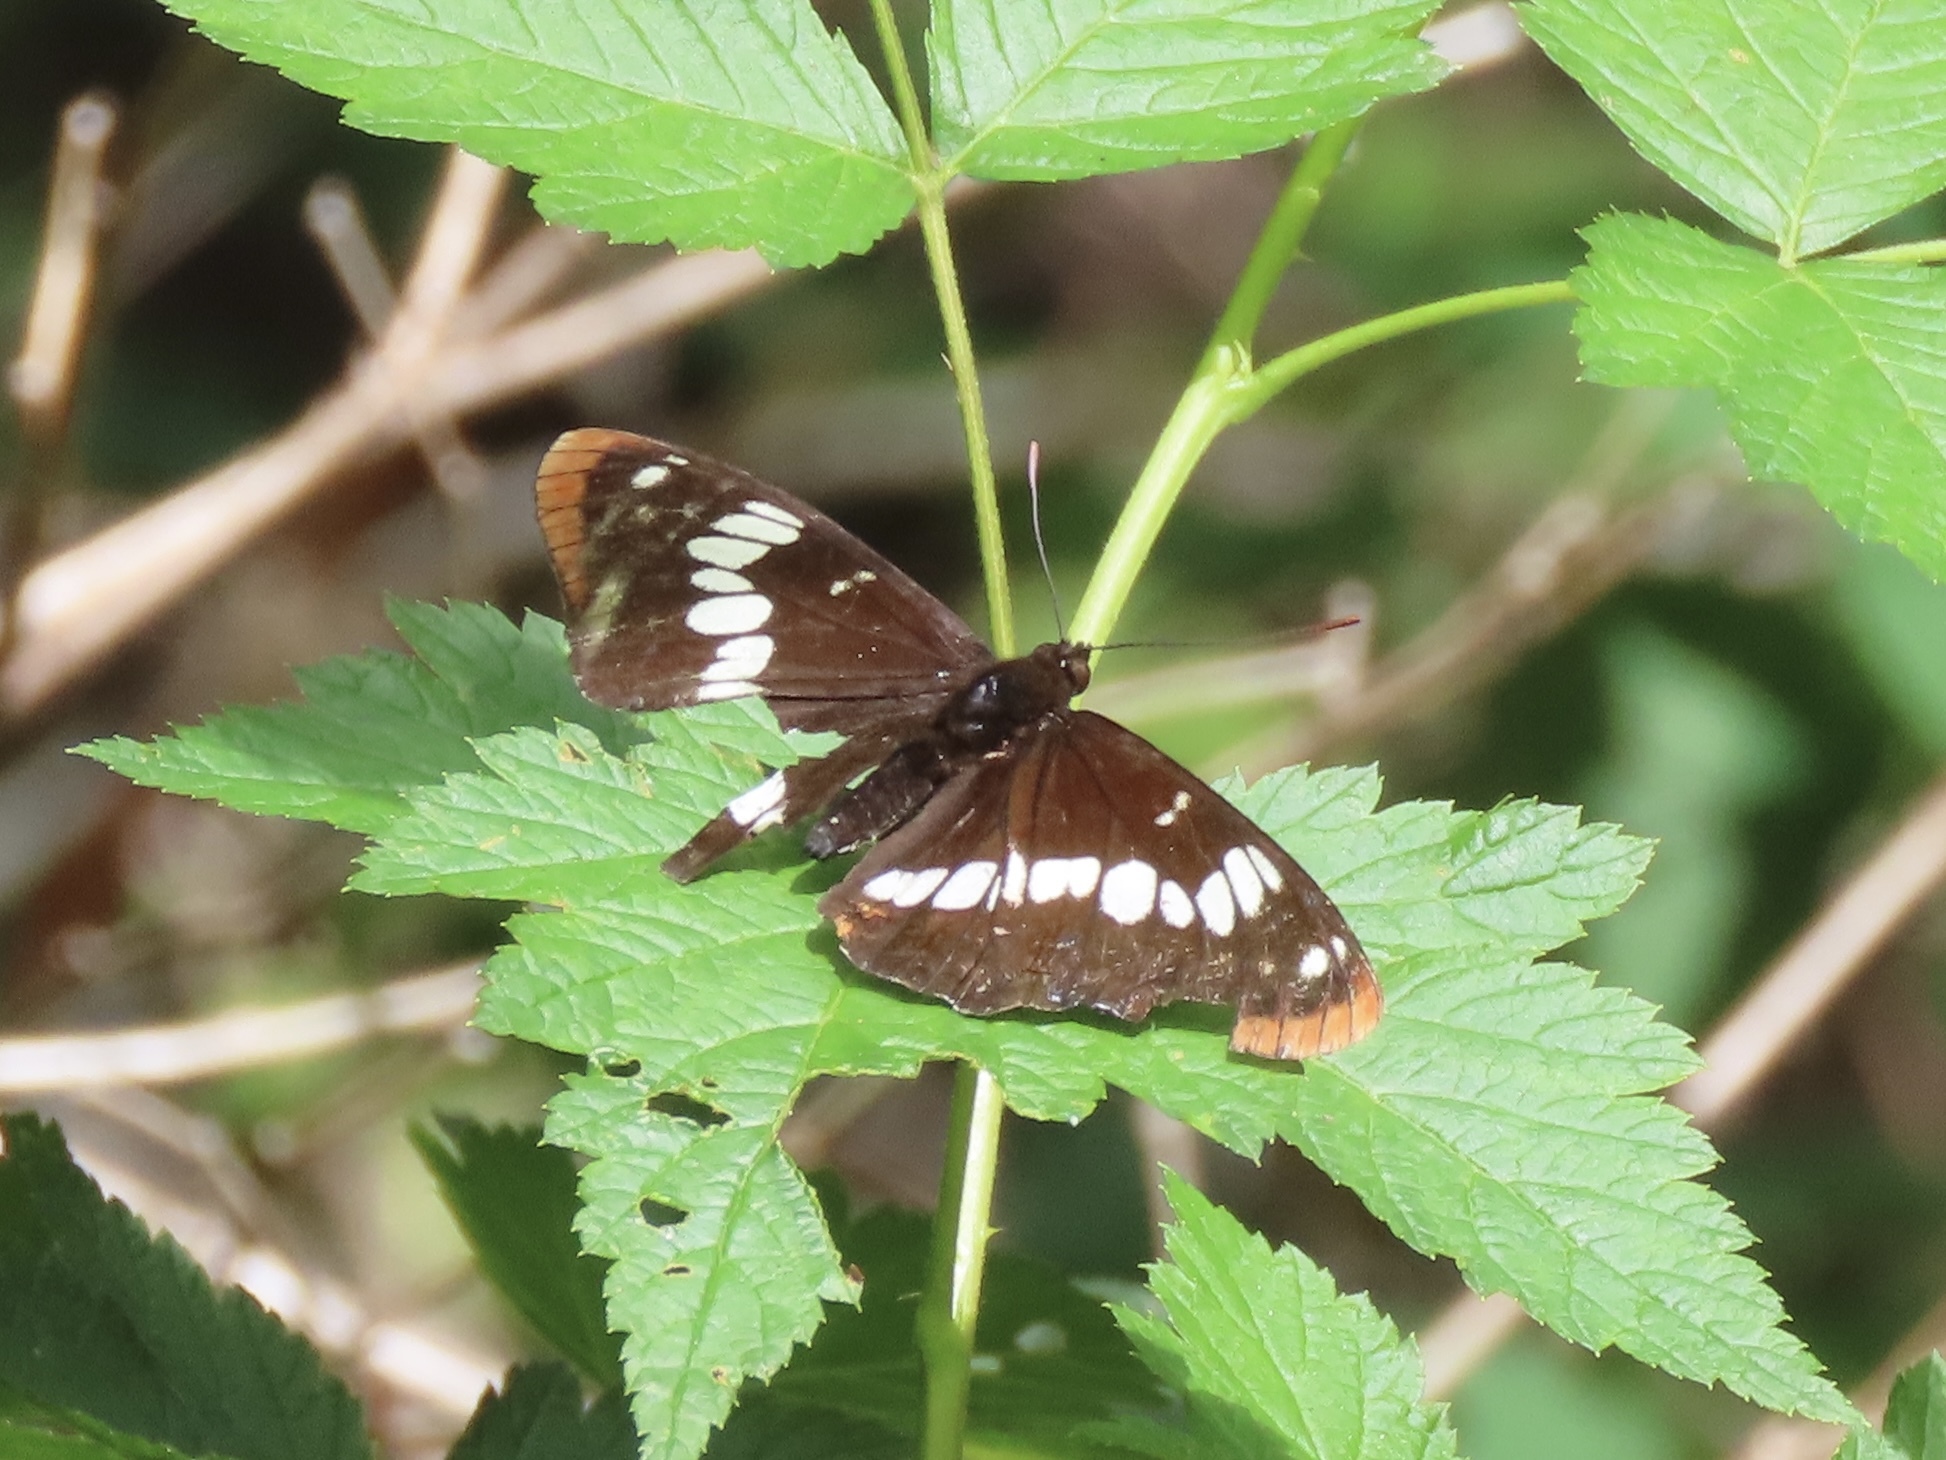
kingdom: Animalia
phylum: Arthropoda
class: Insecta
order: Lepidoptera
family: Nymphalidae
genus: Limenitis
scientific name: Limenitis lorquini
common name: Lorquin's admiral
